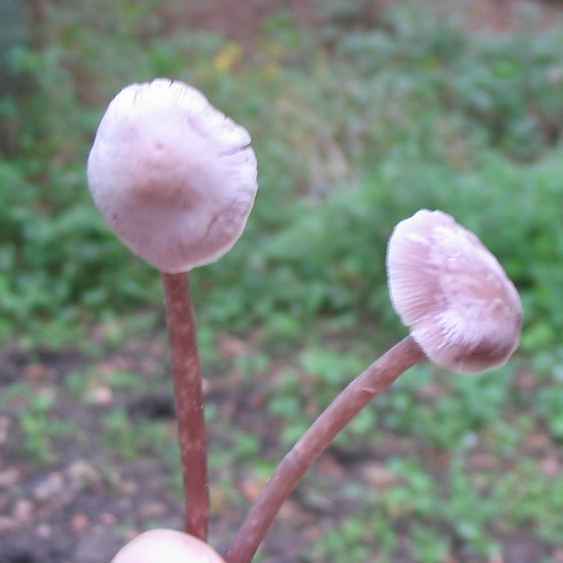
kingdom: Fungi
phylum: Basidiomycota
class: Agaricomycetes
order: Agaricales
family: Mycenaceae
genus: Mycena
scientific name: Mycena pura
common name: Lilac bonnet
